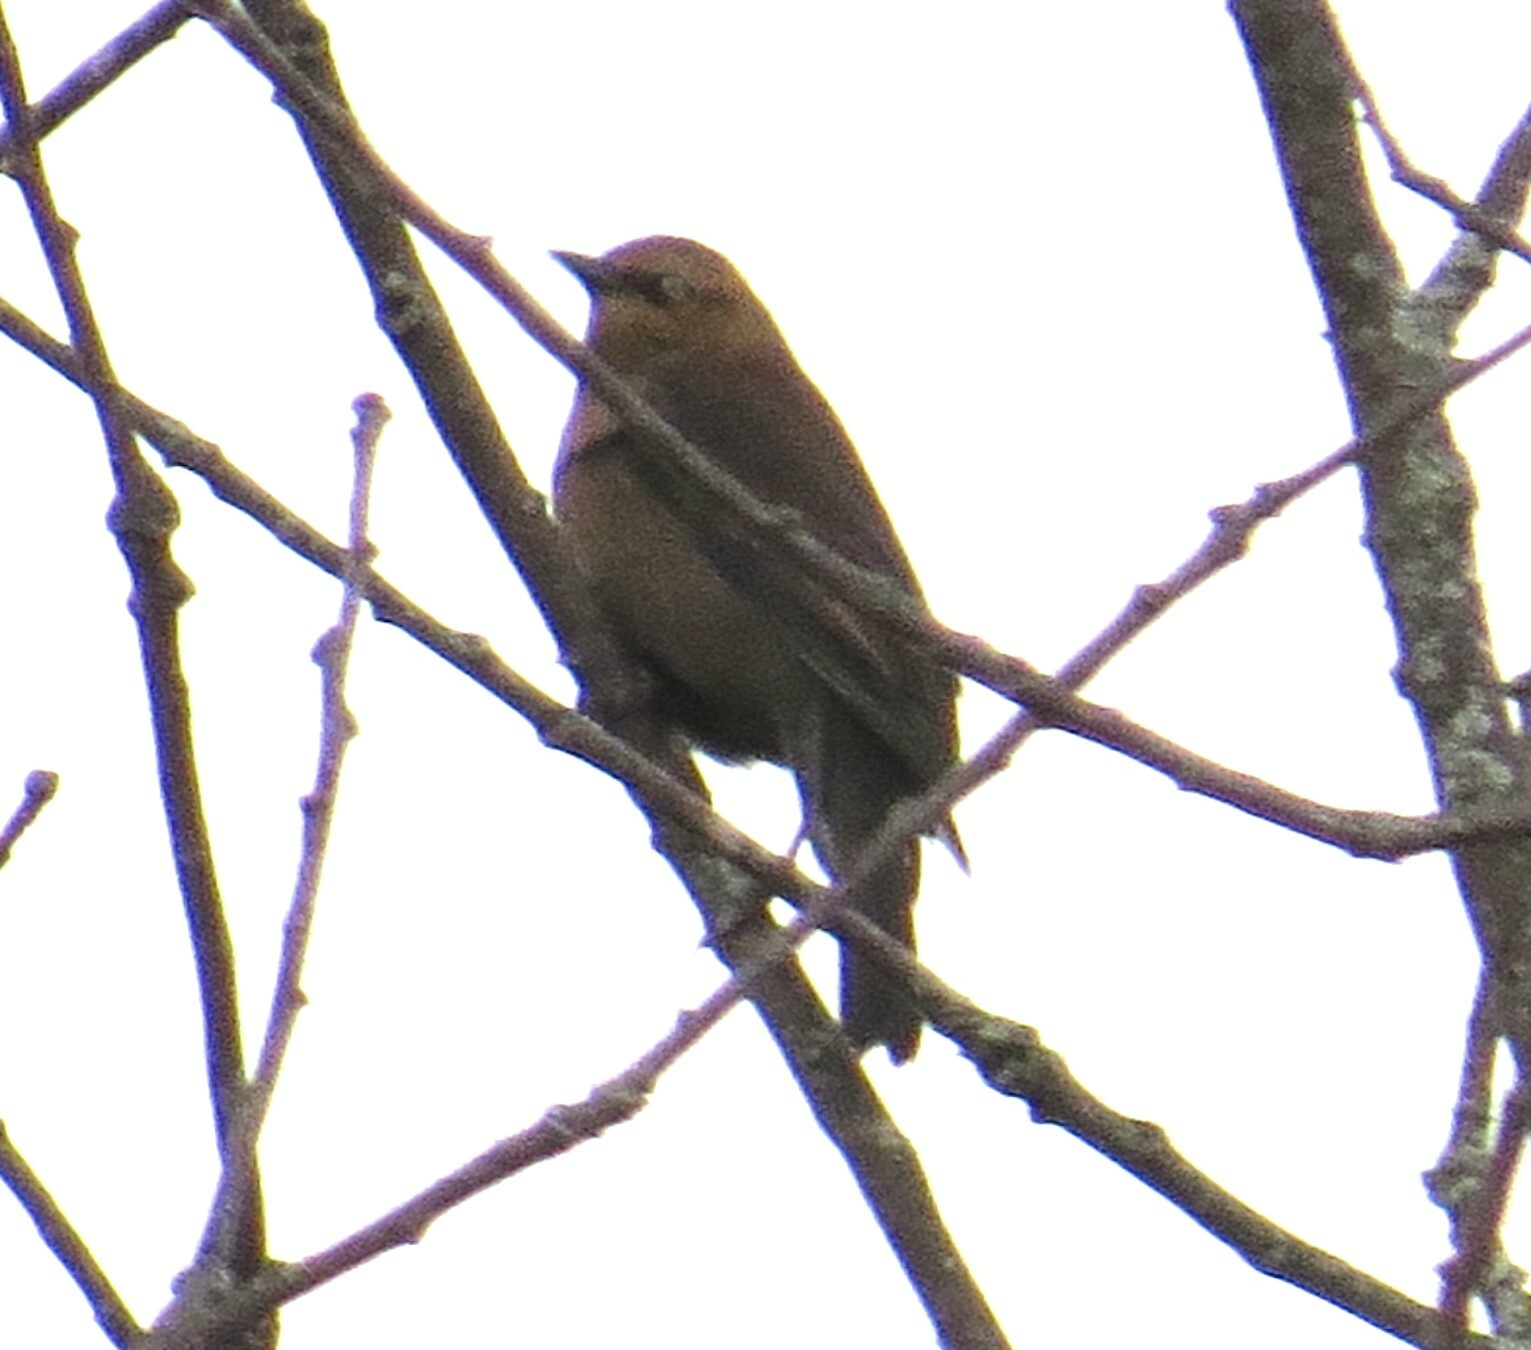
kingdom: Animalia
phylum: Chordata
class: Aves
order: Passeriformes
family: Icteridae
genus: Euphagus
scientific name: Euphagus carolinus
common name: Rusty blackbird
